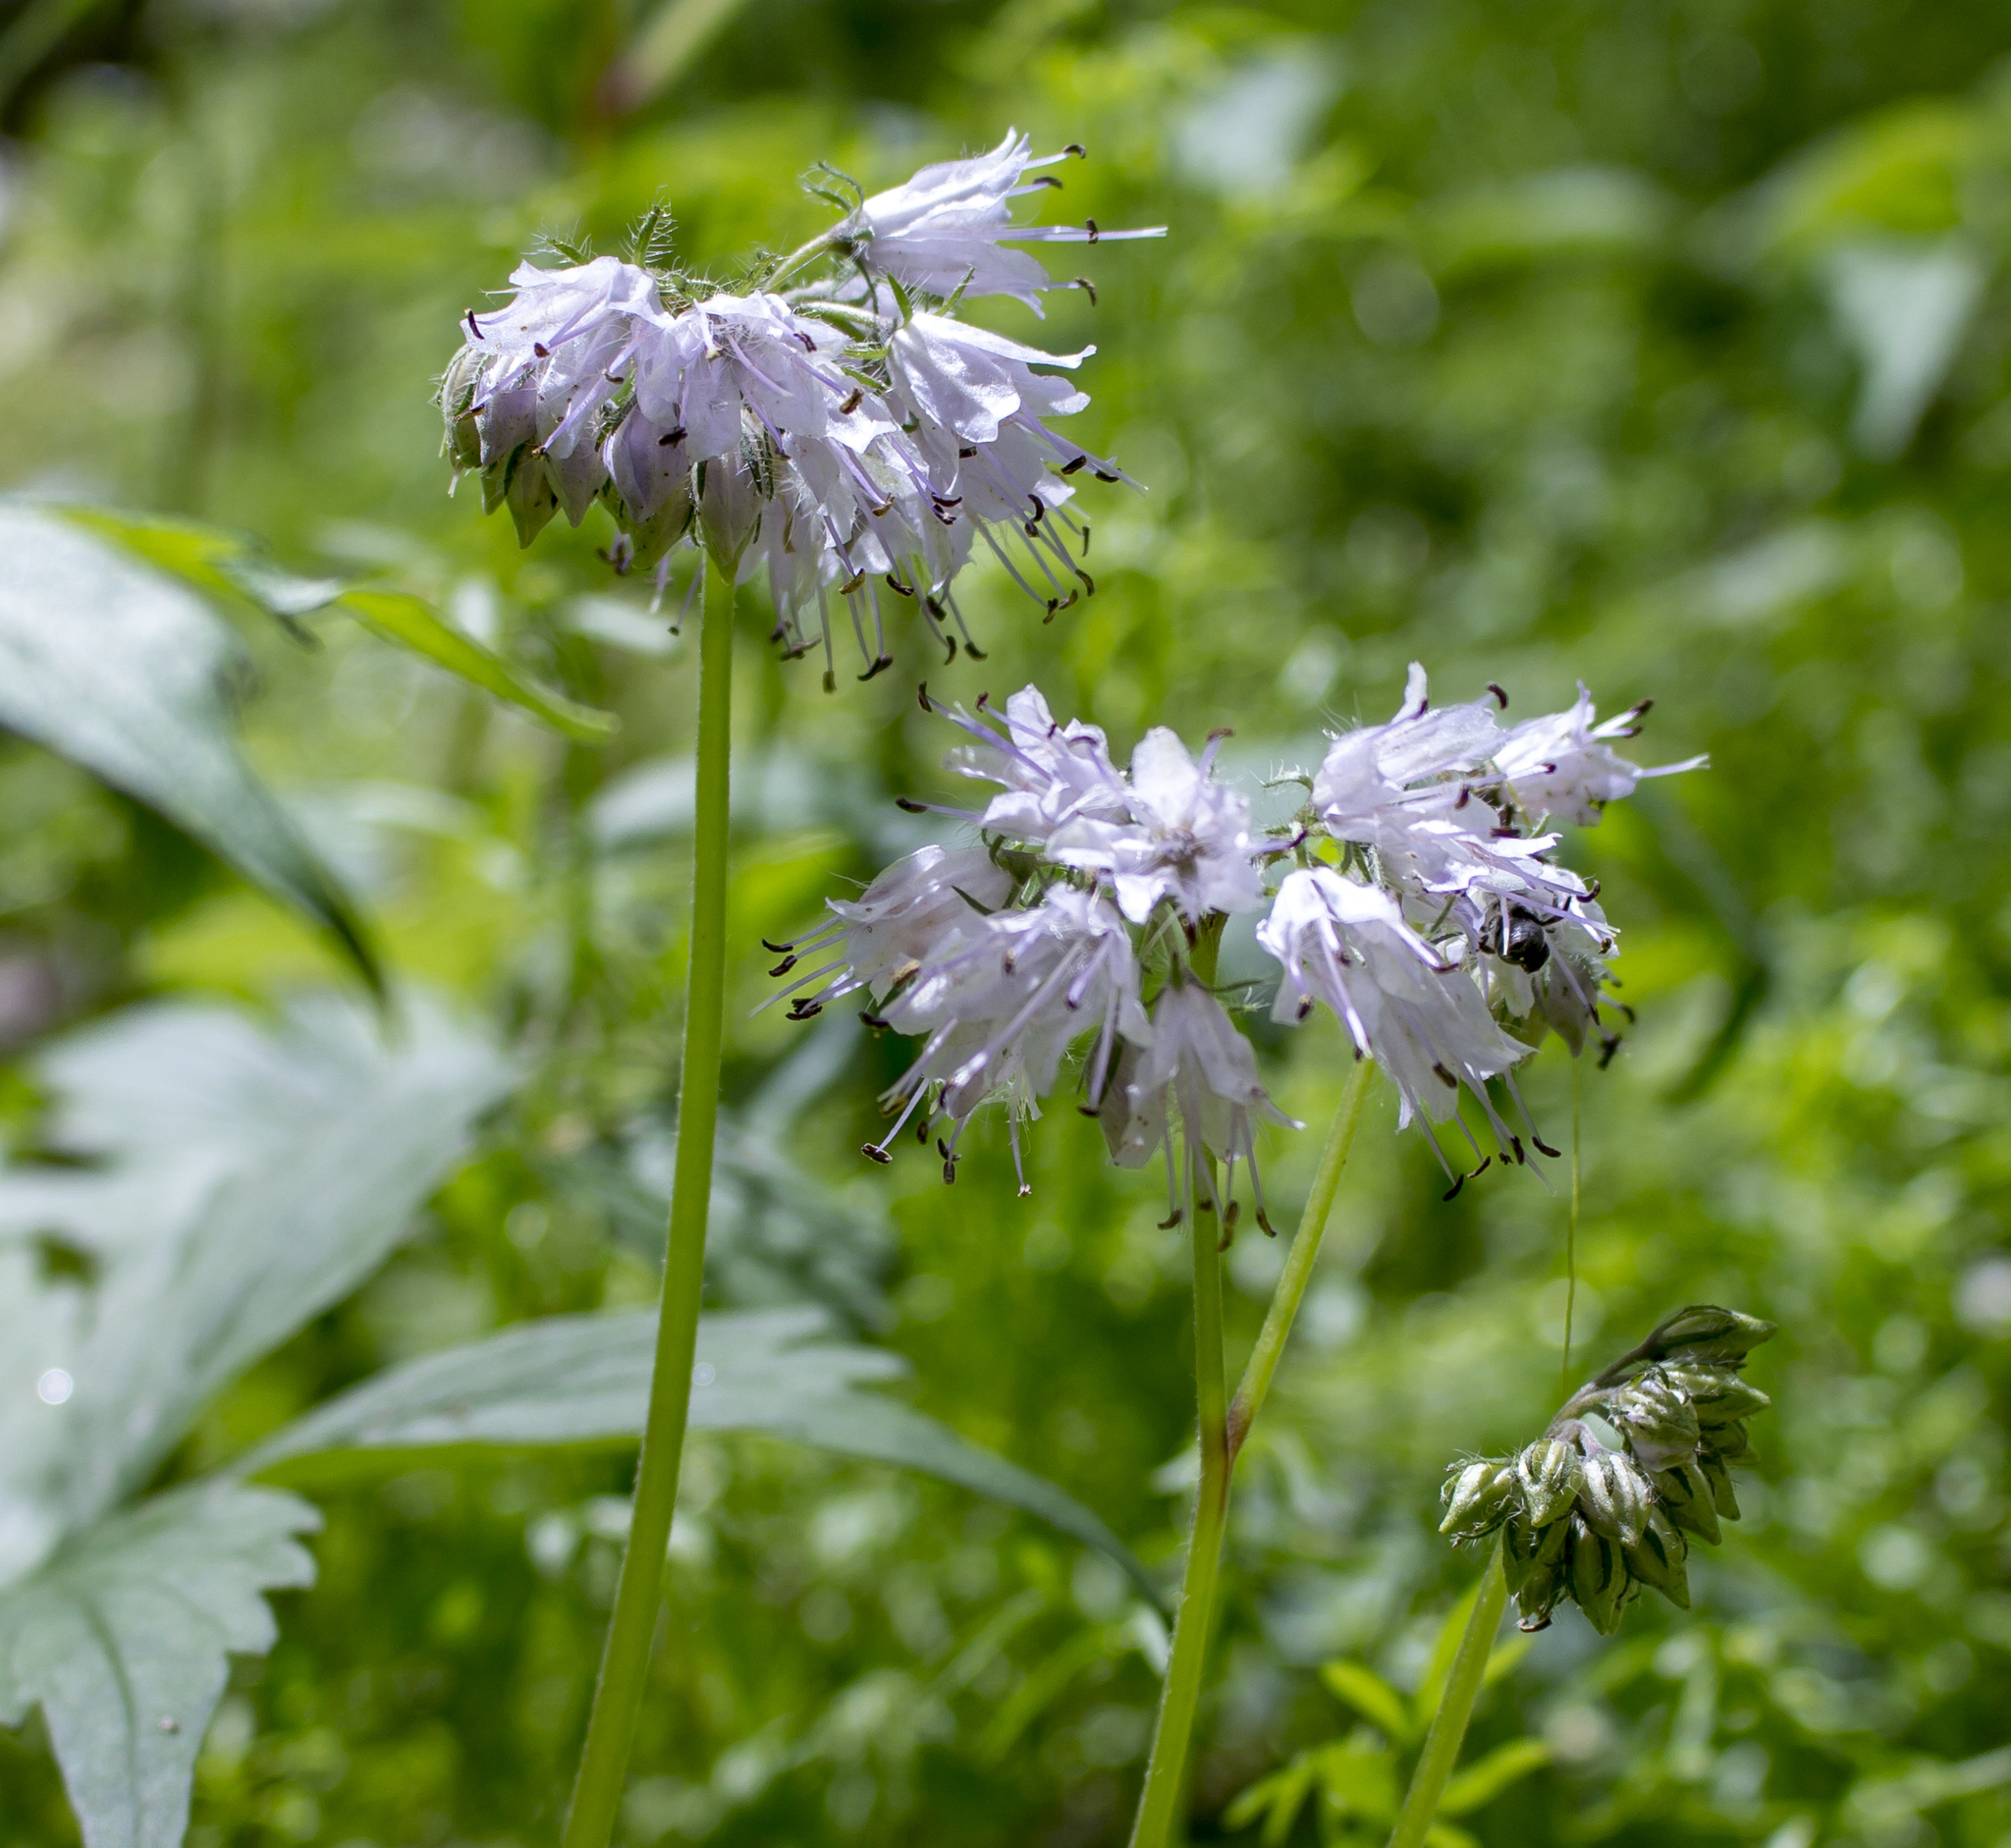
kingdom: Plantae
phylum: Tracheophyta
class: Magnoliopsida
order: Boraginales
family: Hydrophyllaceae
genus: Hydrophyllum
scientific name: Hydrophyllum virginianum
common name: Virginia waterleaf
